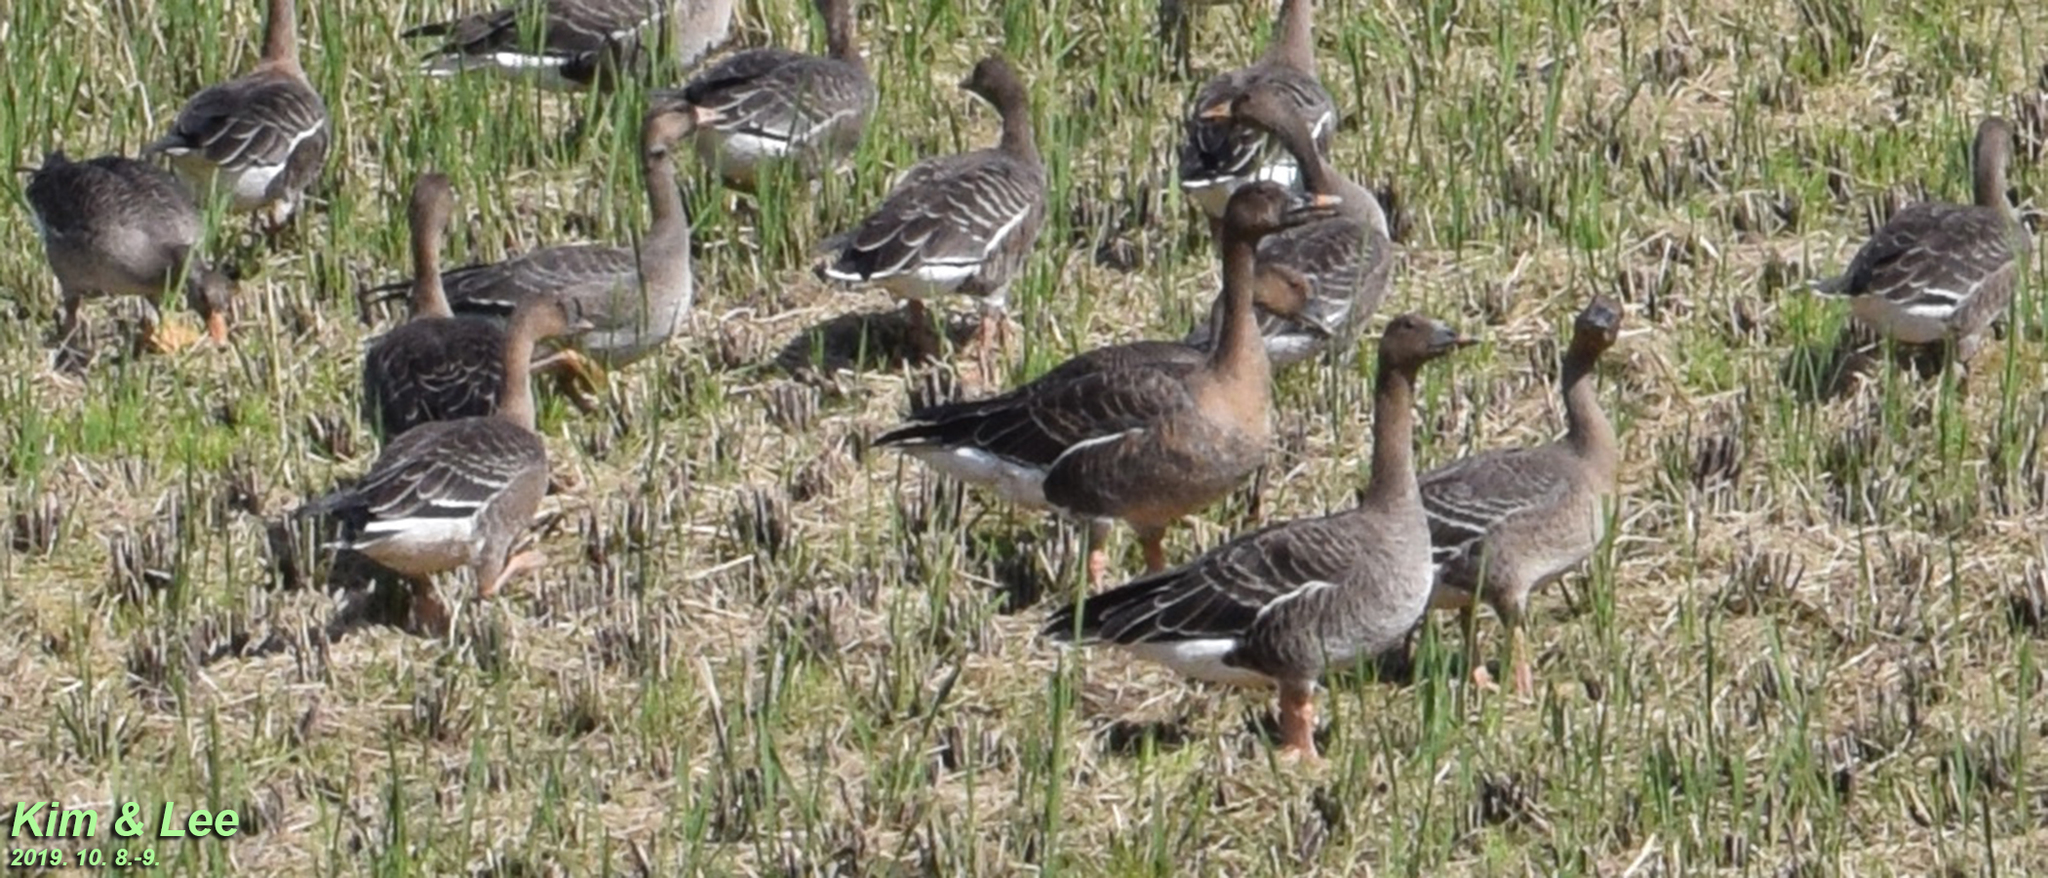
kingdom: Animalia
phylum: Chordata
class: Aves
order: Anseriformes
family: Anatidae
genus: Anser
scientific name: Anser fabalis
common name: Bean goose
